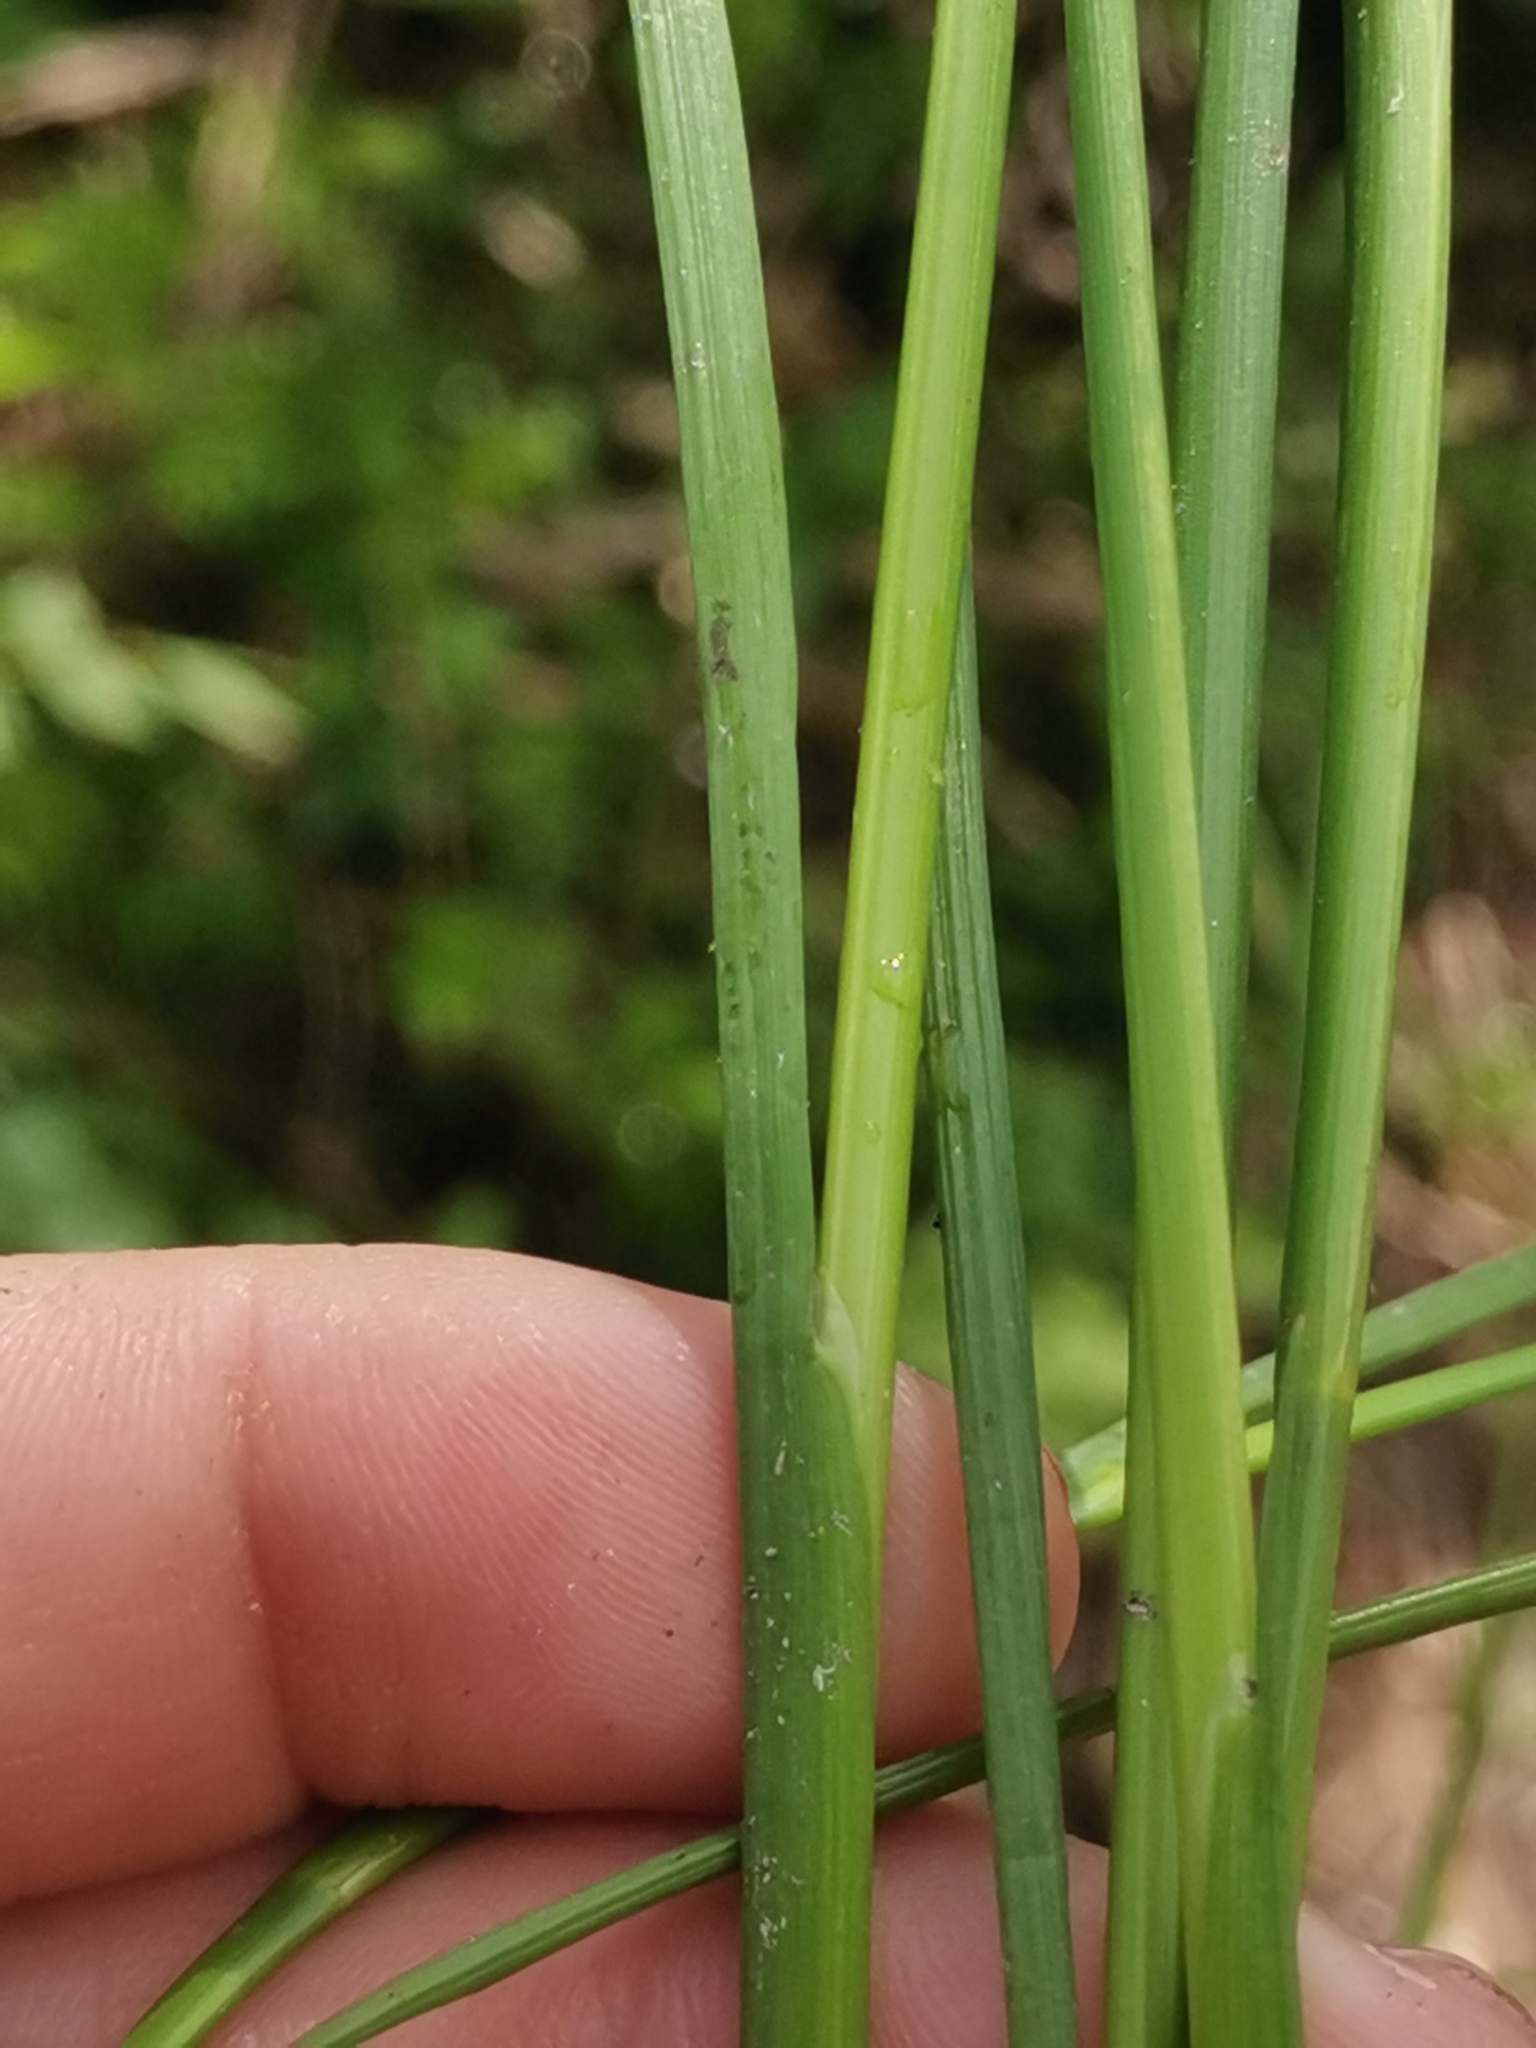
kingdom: Plantae
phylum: Tracheophyta
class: Liliopsida
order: Poales
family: Juncaceae
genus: Juncus
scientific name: Juncus articulatus
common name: Jointed rush
